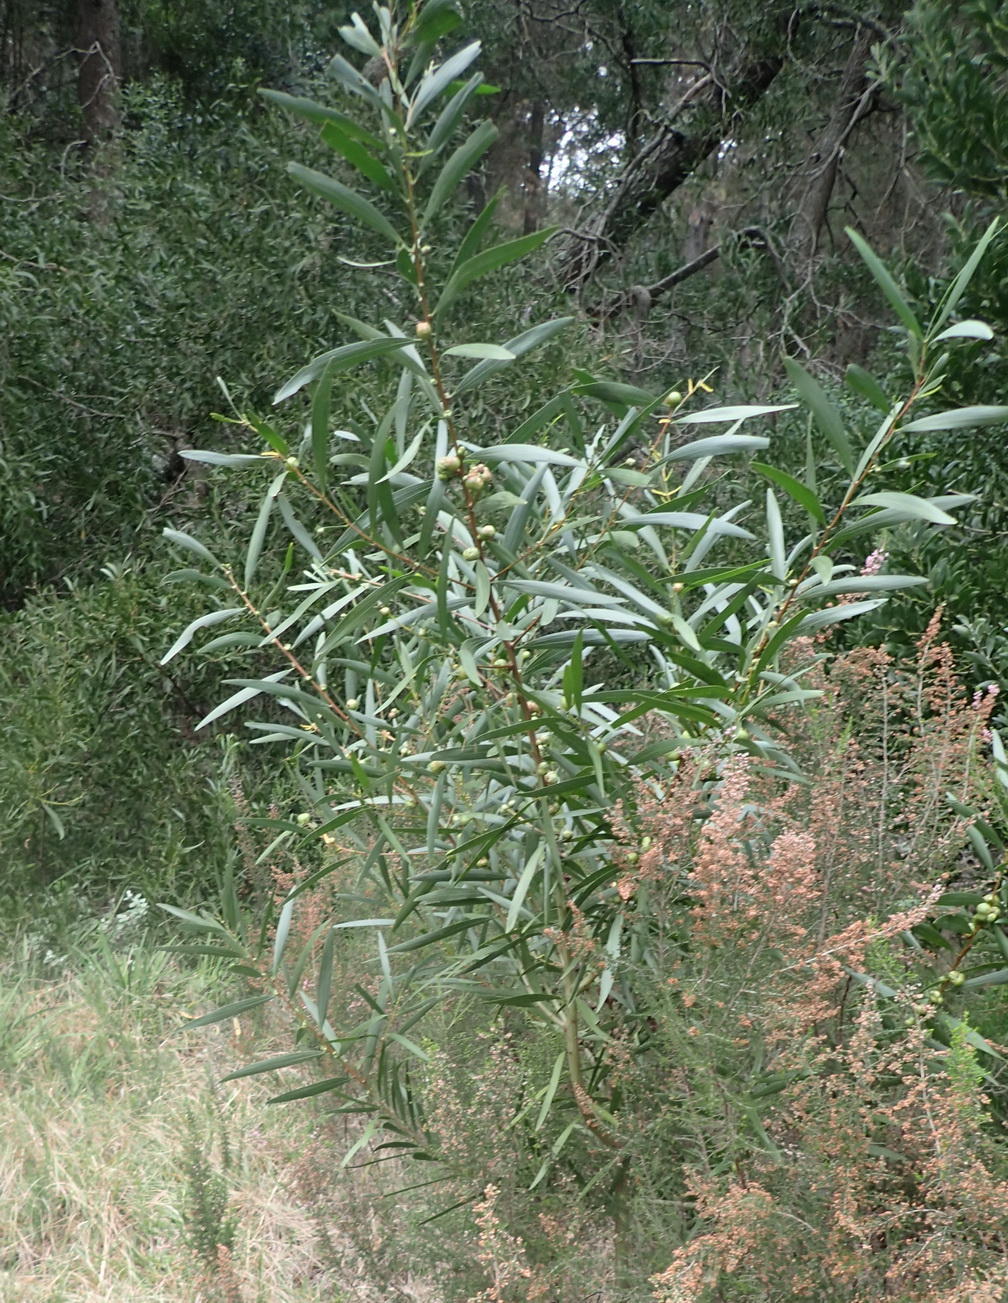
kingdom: Plantae
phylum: Tracheophyta
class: Magnoliopsida
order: Fabales
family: Fabaceae
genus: Acacia
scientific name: Acacia longifolia
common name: Sydney golden wattle
